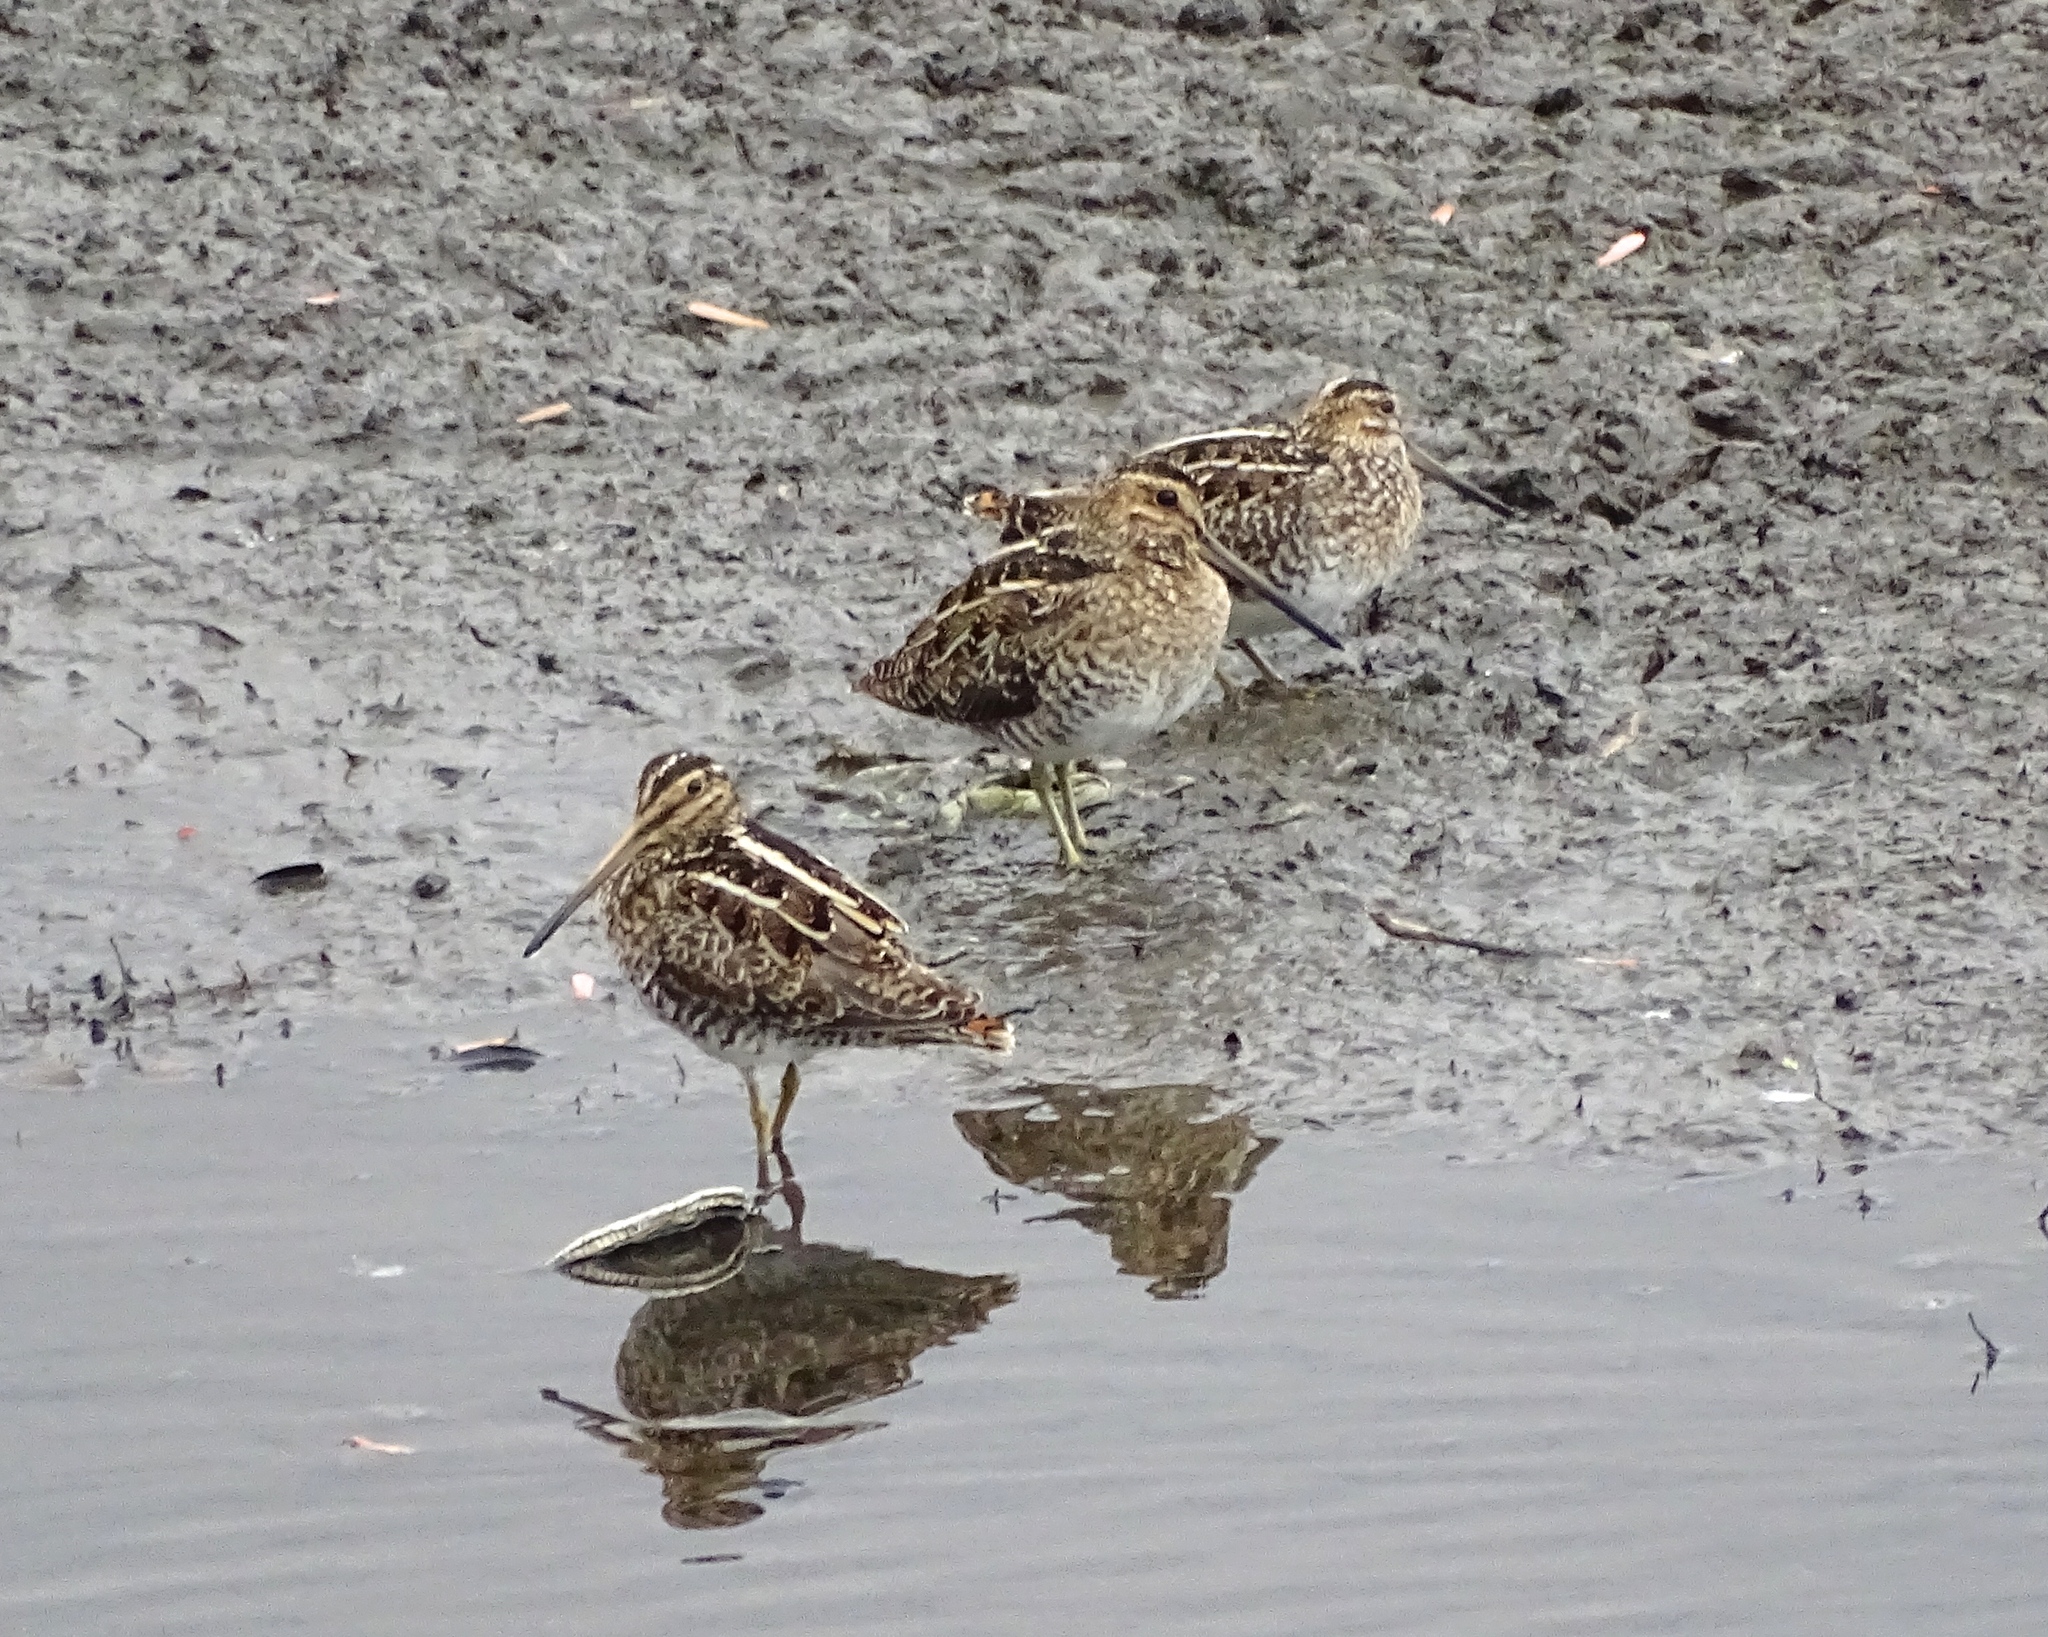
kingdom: Animalia
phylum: Chordata
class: Aves
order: Charadriiformes
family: Scolopacidae
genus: Gallinago
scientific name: Gallinago delicata
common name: Wilson's snipe
